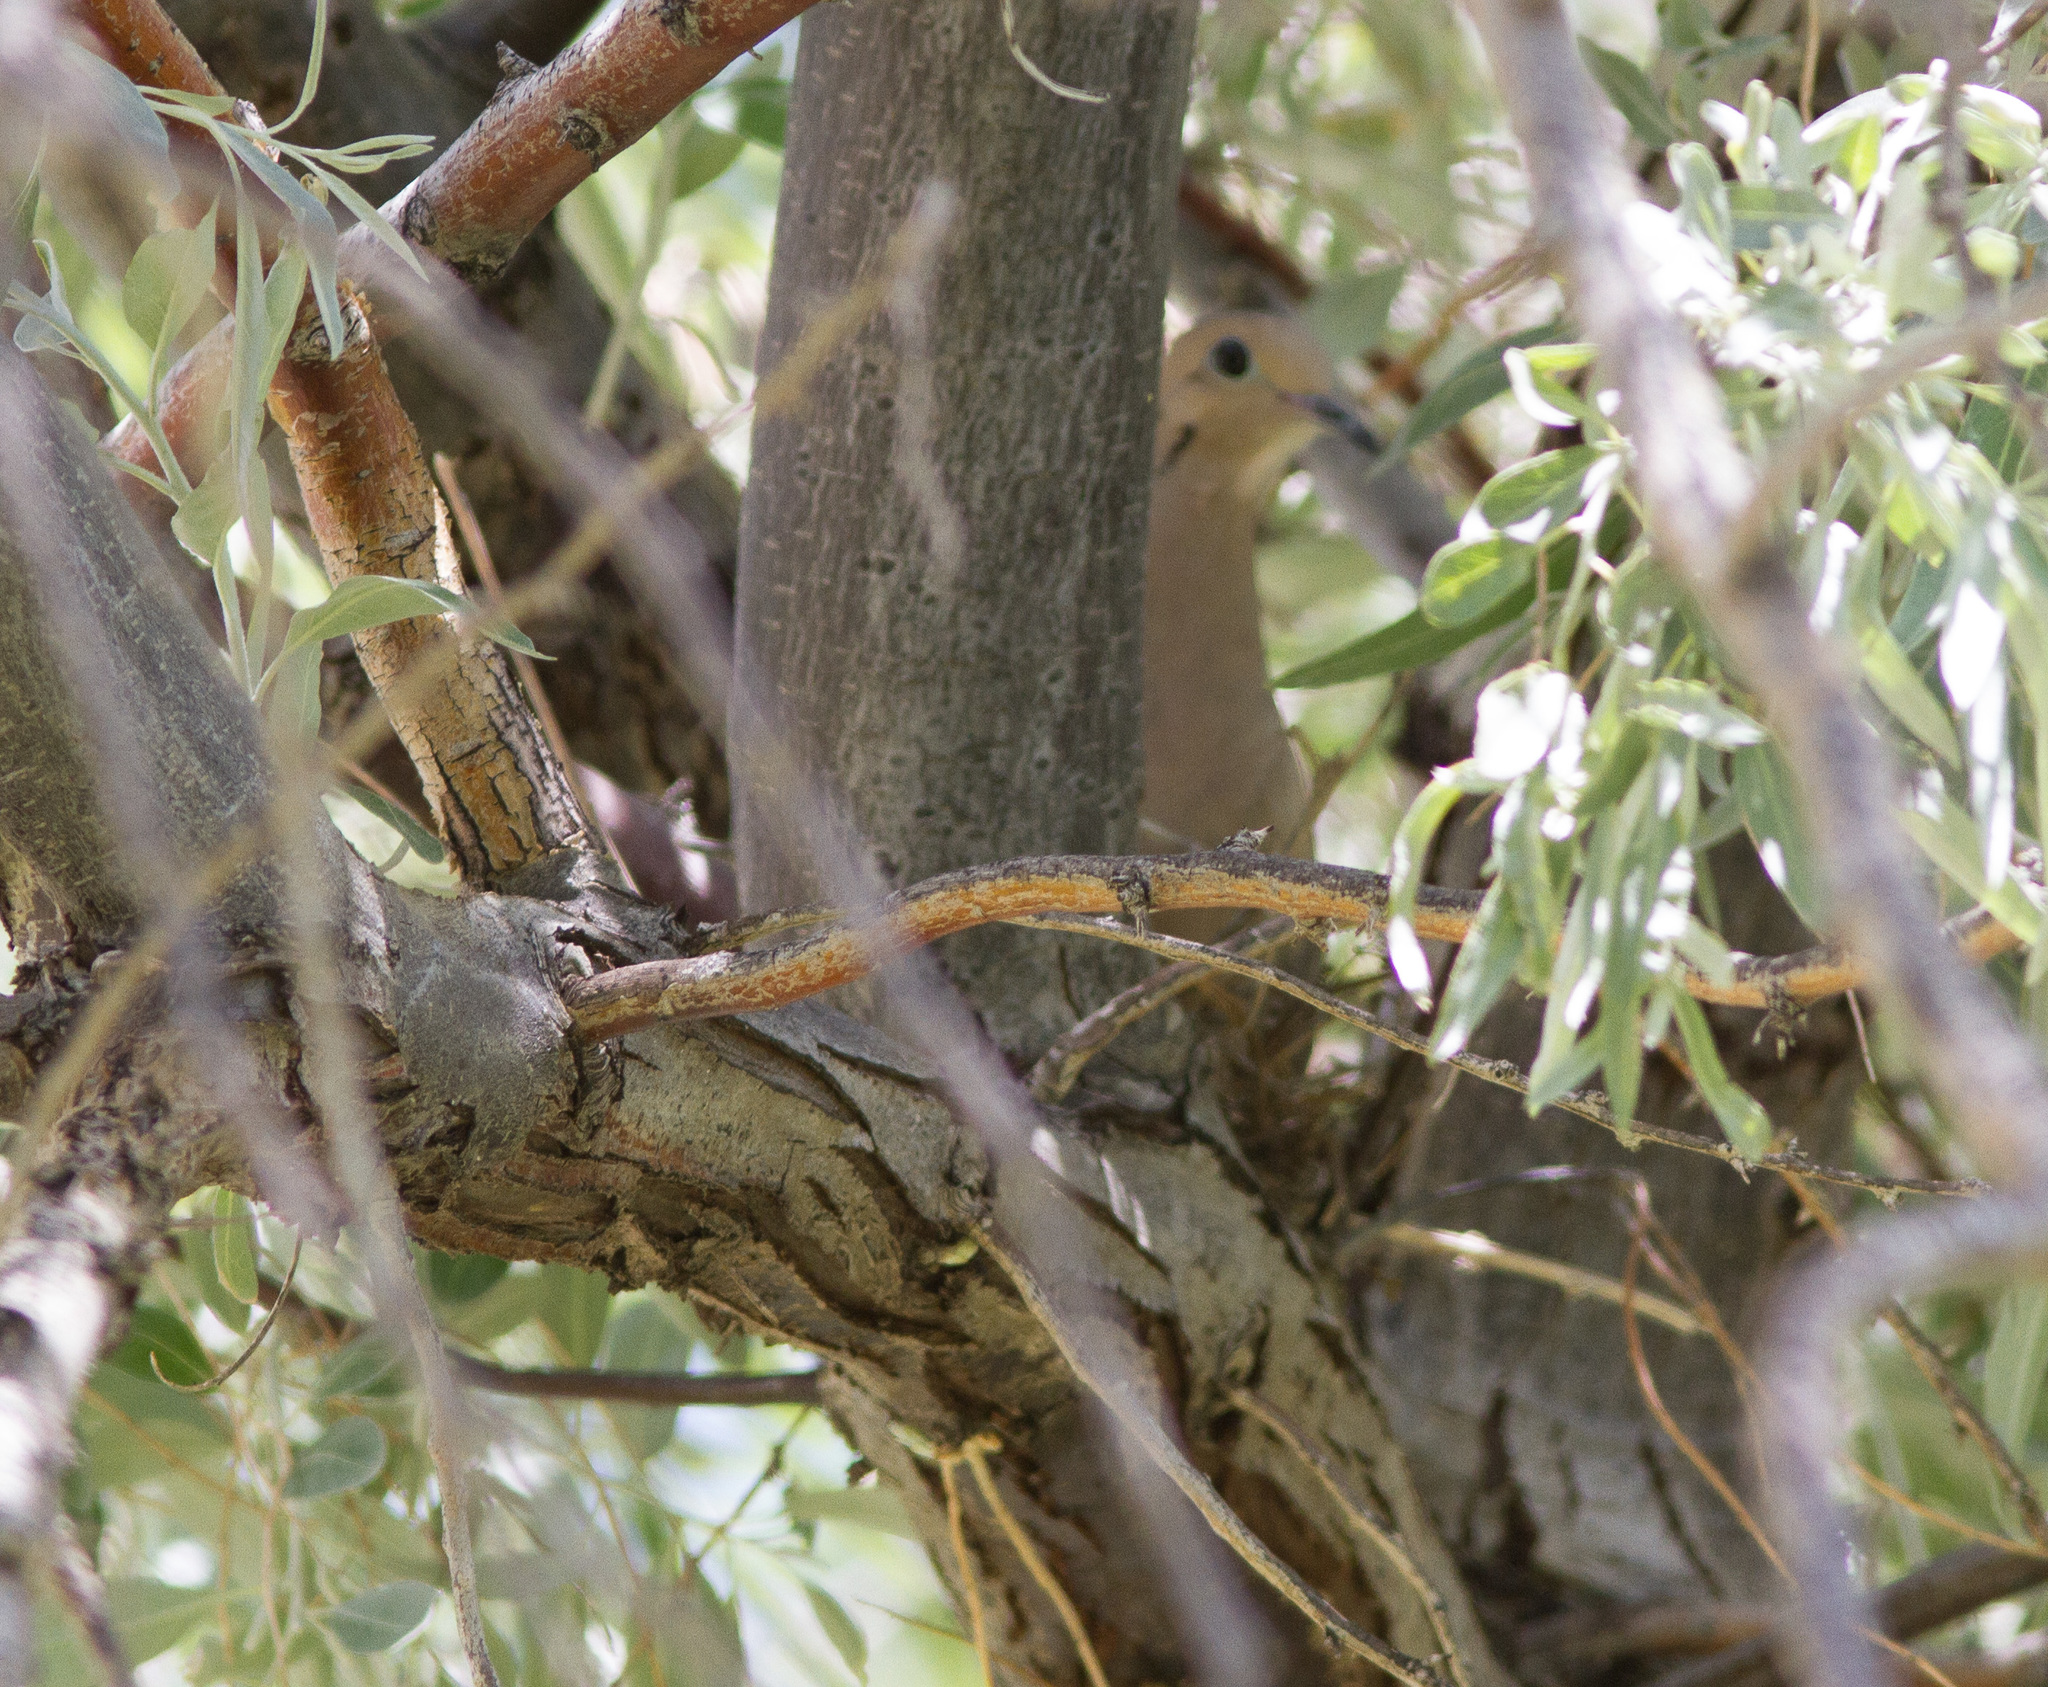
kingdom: Animalia
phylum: Chordata
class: Aves
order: Columbiformes
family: Columbidae
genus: Zenaida
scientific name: Zenaida macroura
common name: Mourning dove
